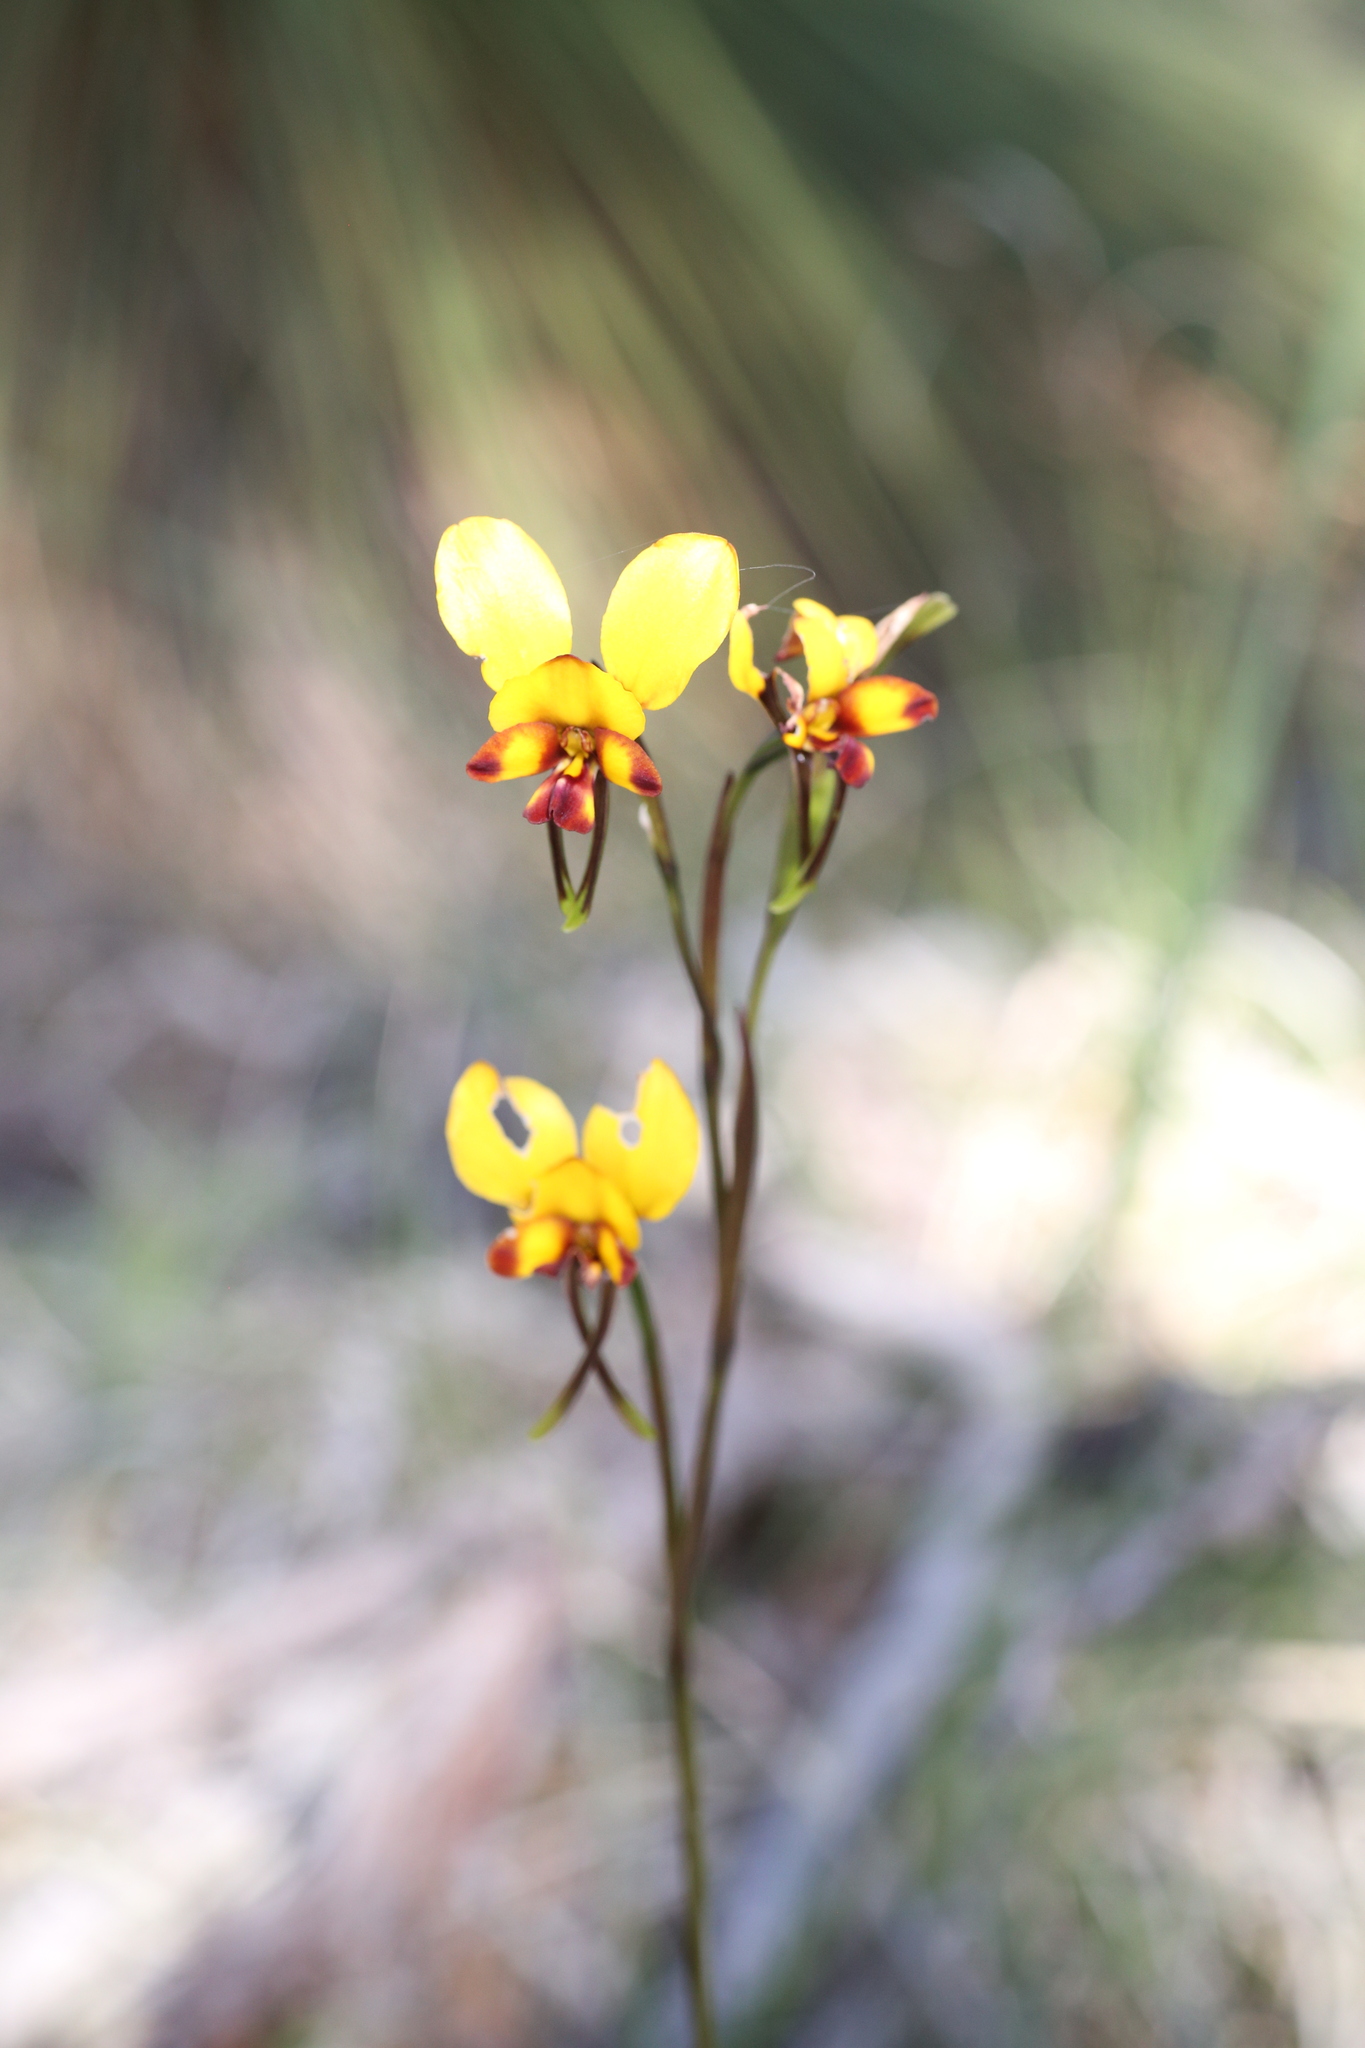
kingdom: Plantae
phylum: Tracheophyta
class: Liliopsida
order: Asparagales
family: Orchidaceae
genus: Diuris
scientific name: Diuris corymbosa
